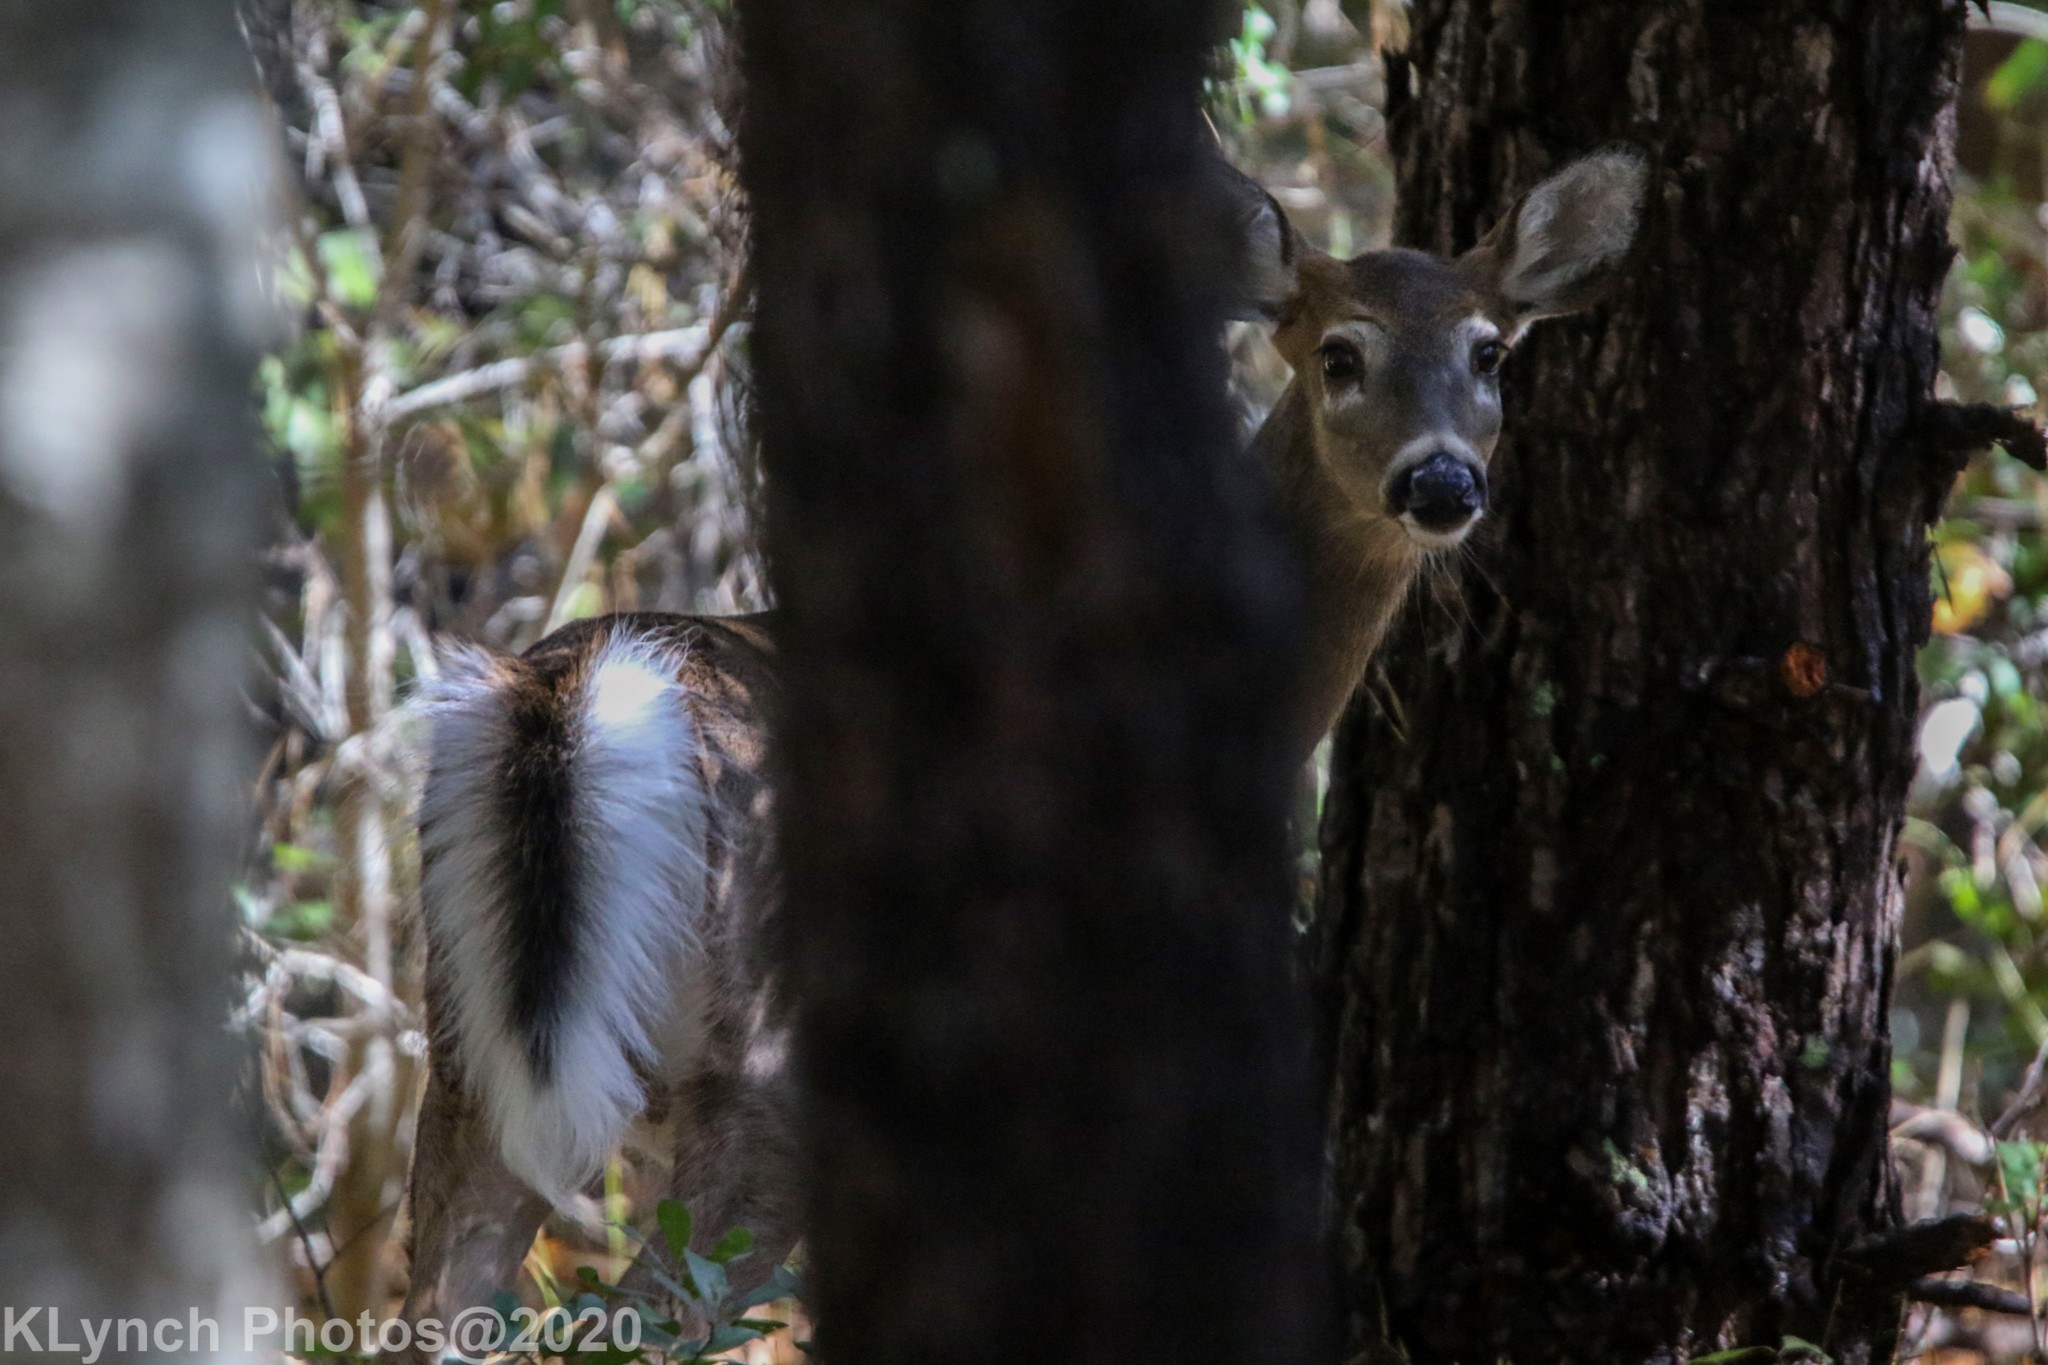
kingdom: Animalia
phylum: Chordata
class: Mammalia
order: Artiodactyla
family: Cervidae
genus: Odocoileus
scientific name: Odocoileus virginianus
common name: White-tailed deer
